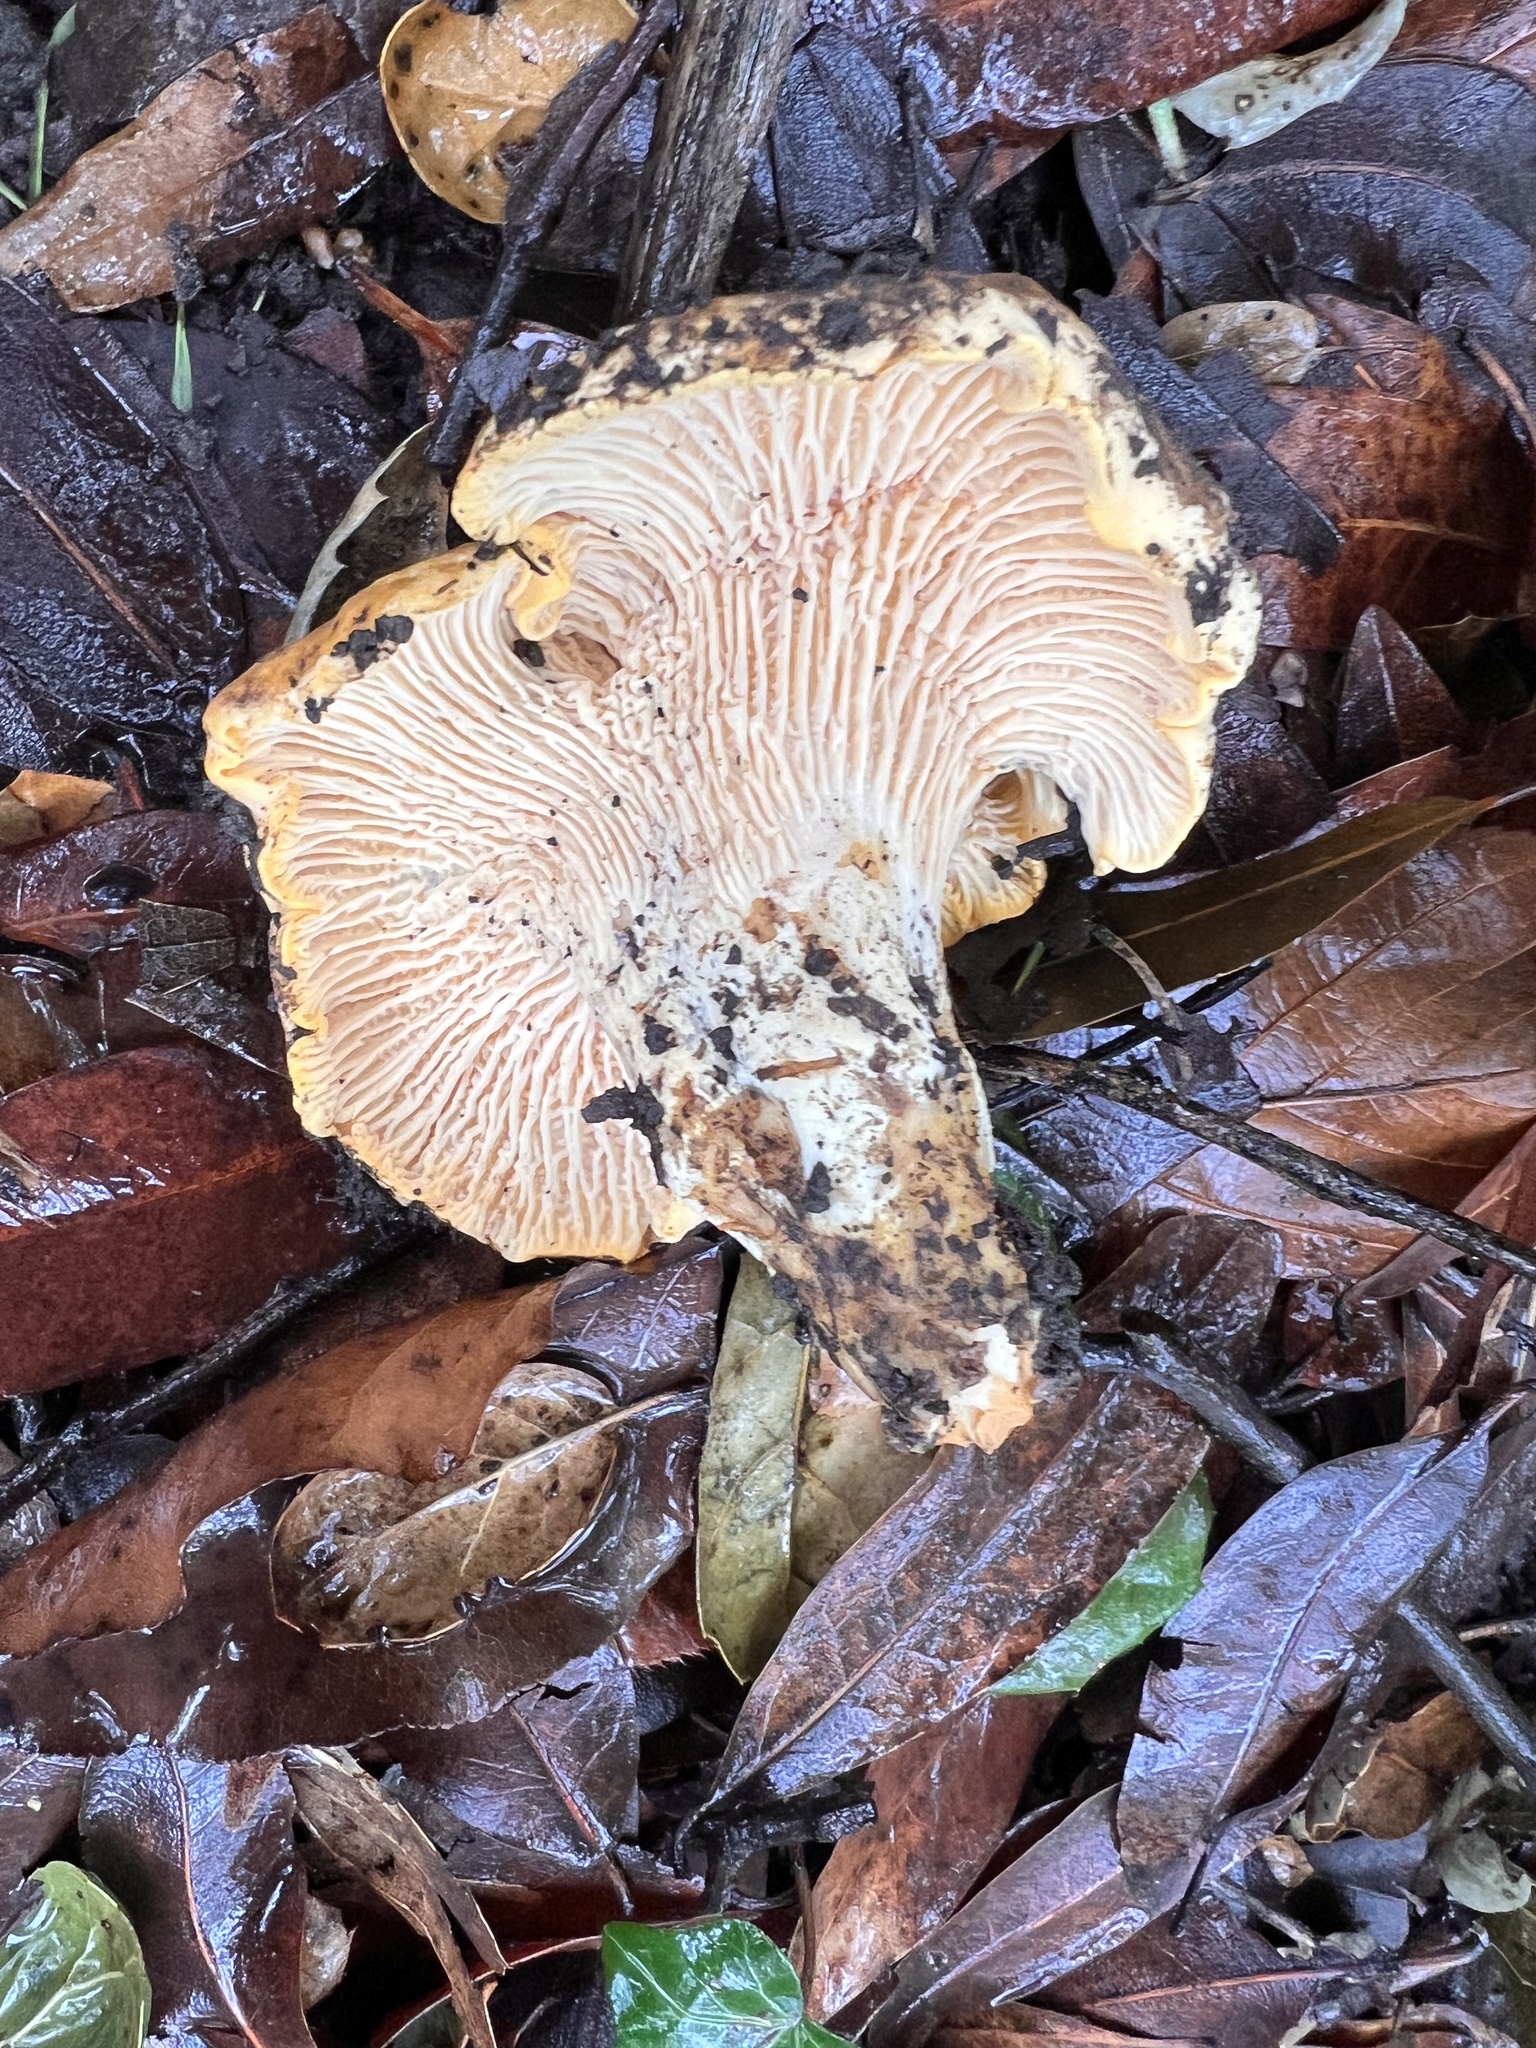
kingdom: Fungi
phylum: Basidiomycota
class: Agaricomycetes
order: Cantharellales
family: Hydnaceae
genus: Cantharellus
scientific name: Cantharellus californicus
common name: California golden chanterelle
